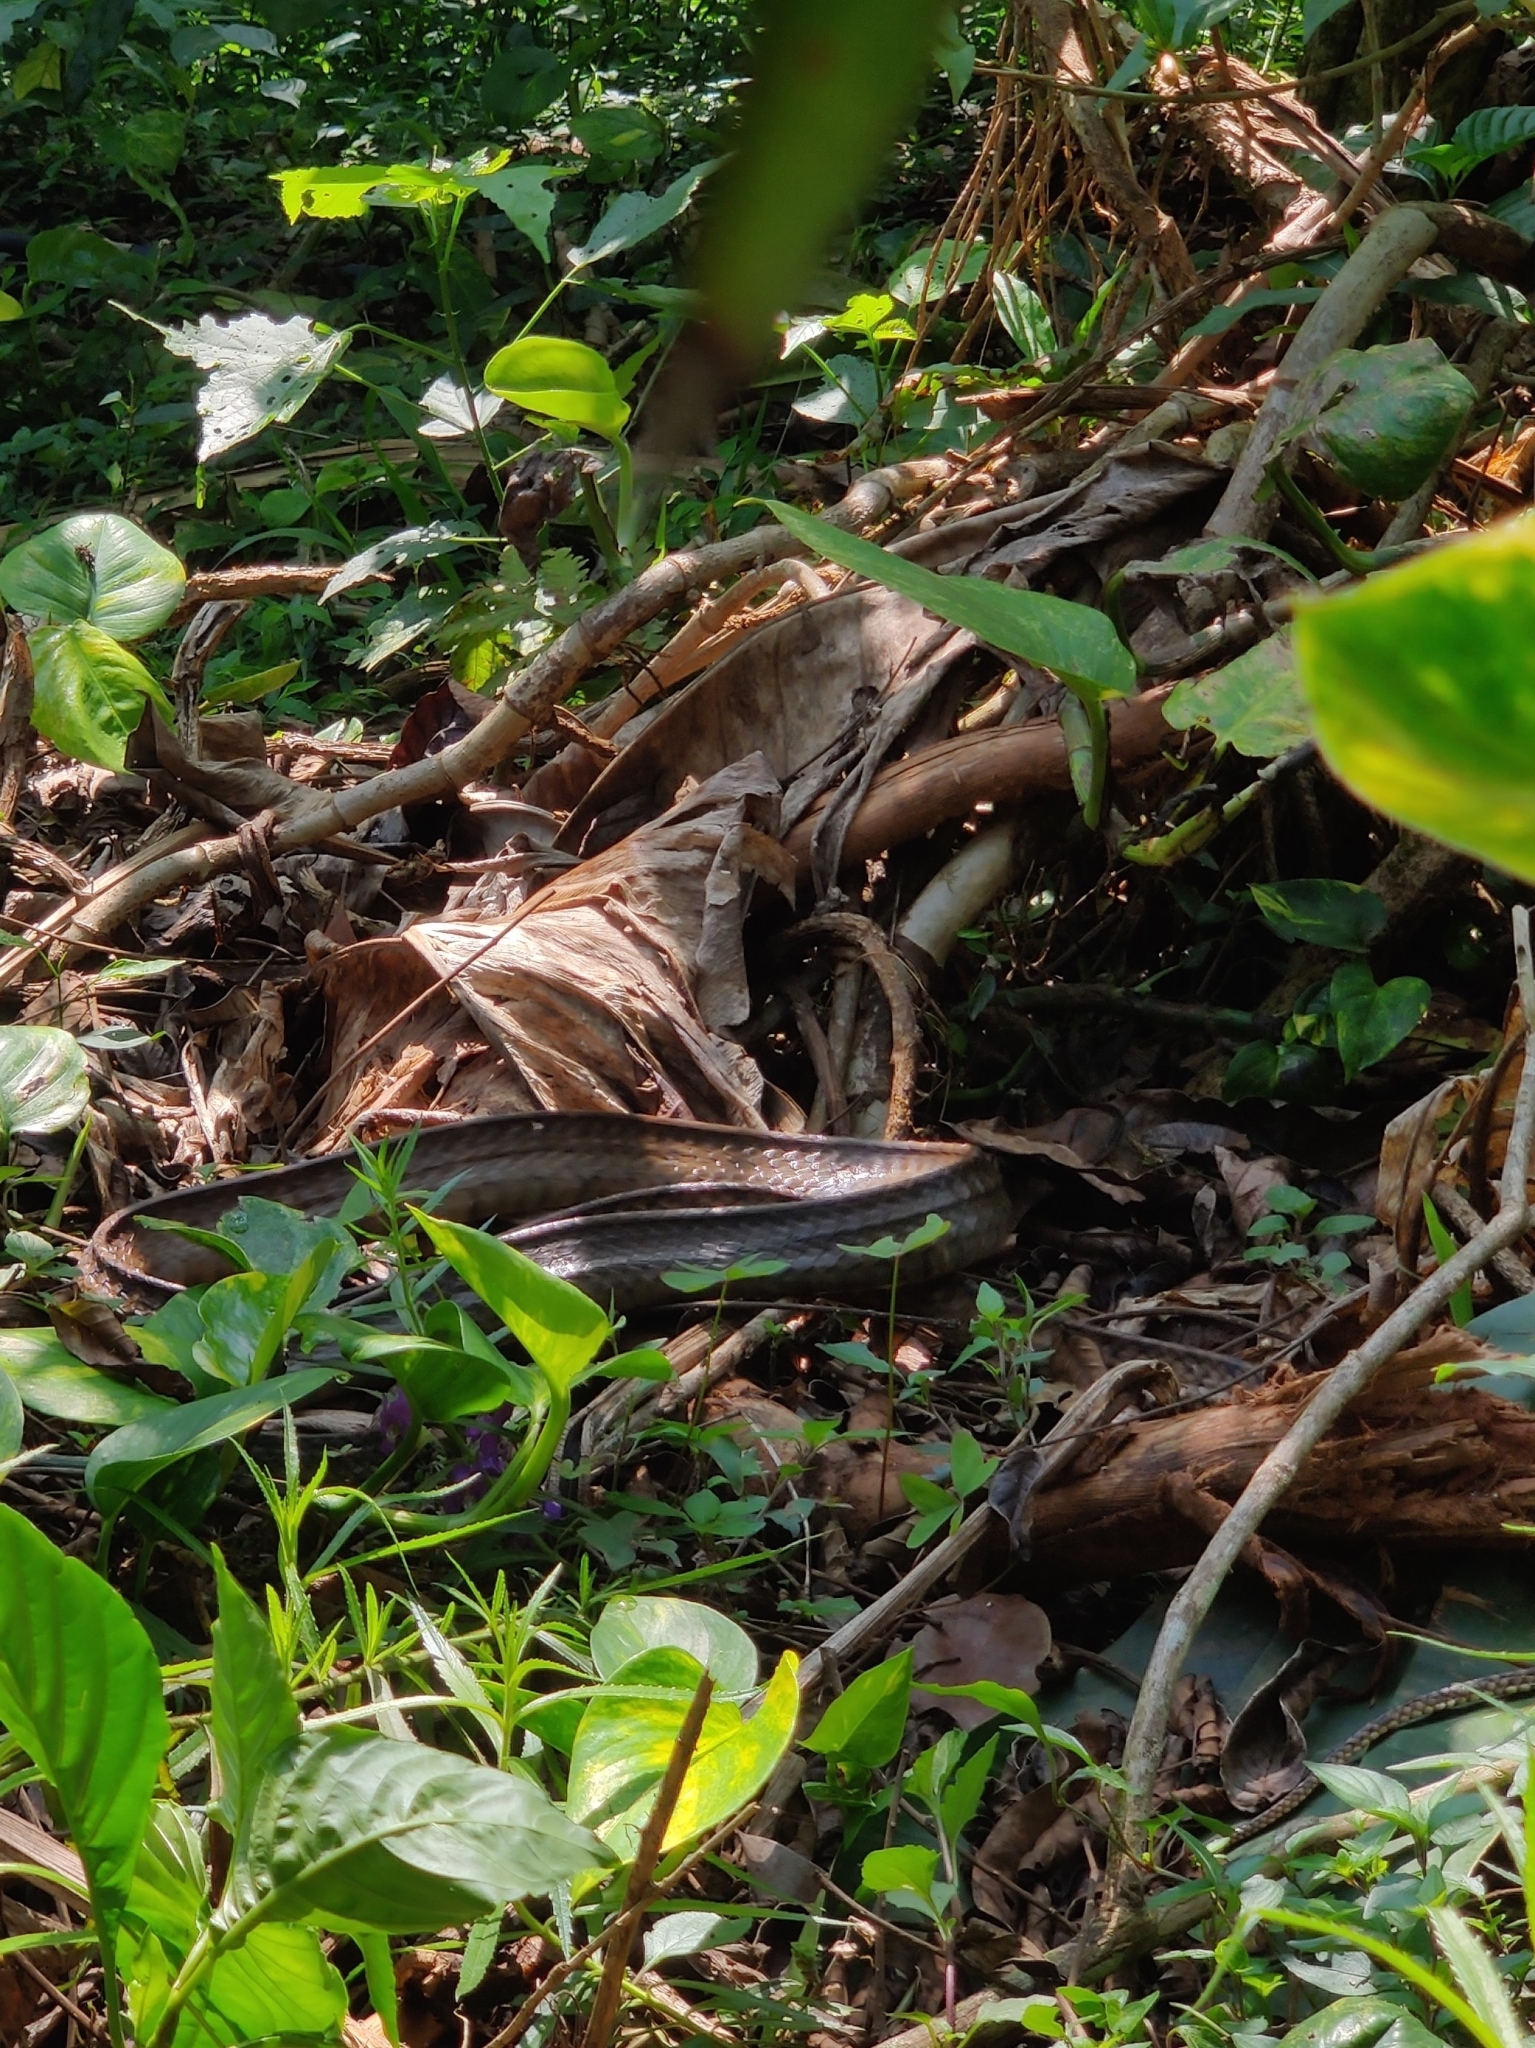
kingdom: Animalia
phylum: Chordata
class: Squamata
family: Colubridae
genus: Ptyas
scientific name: Ptyas mucosa
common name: Oriental ratsnake
